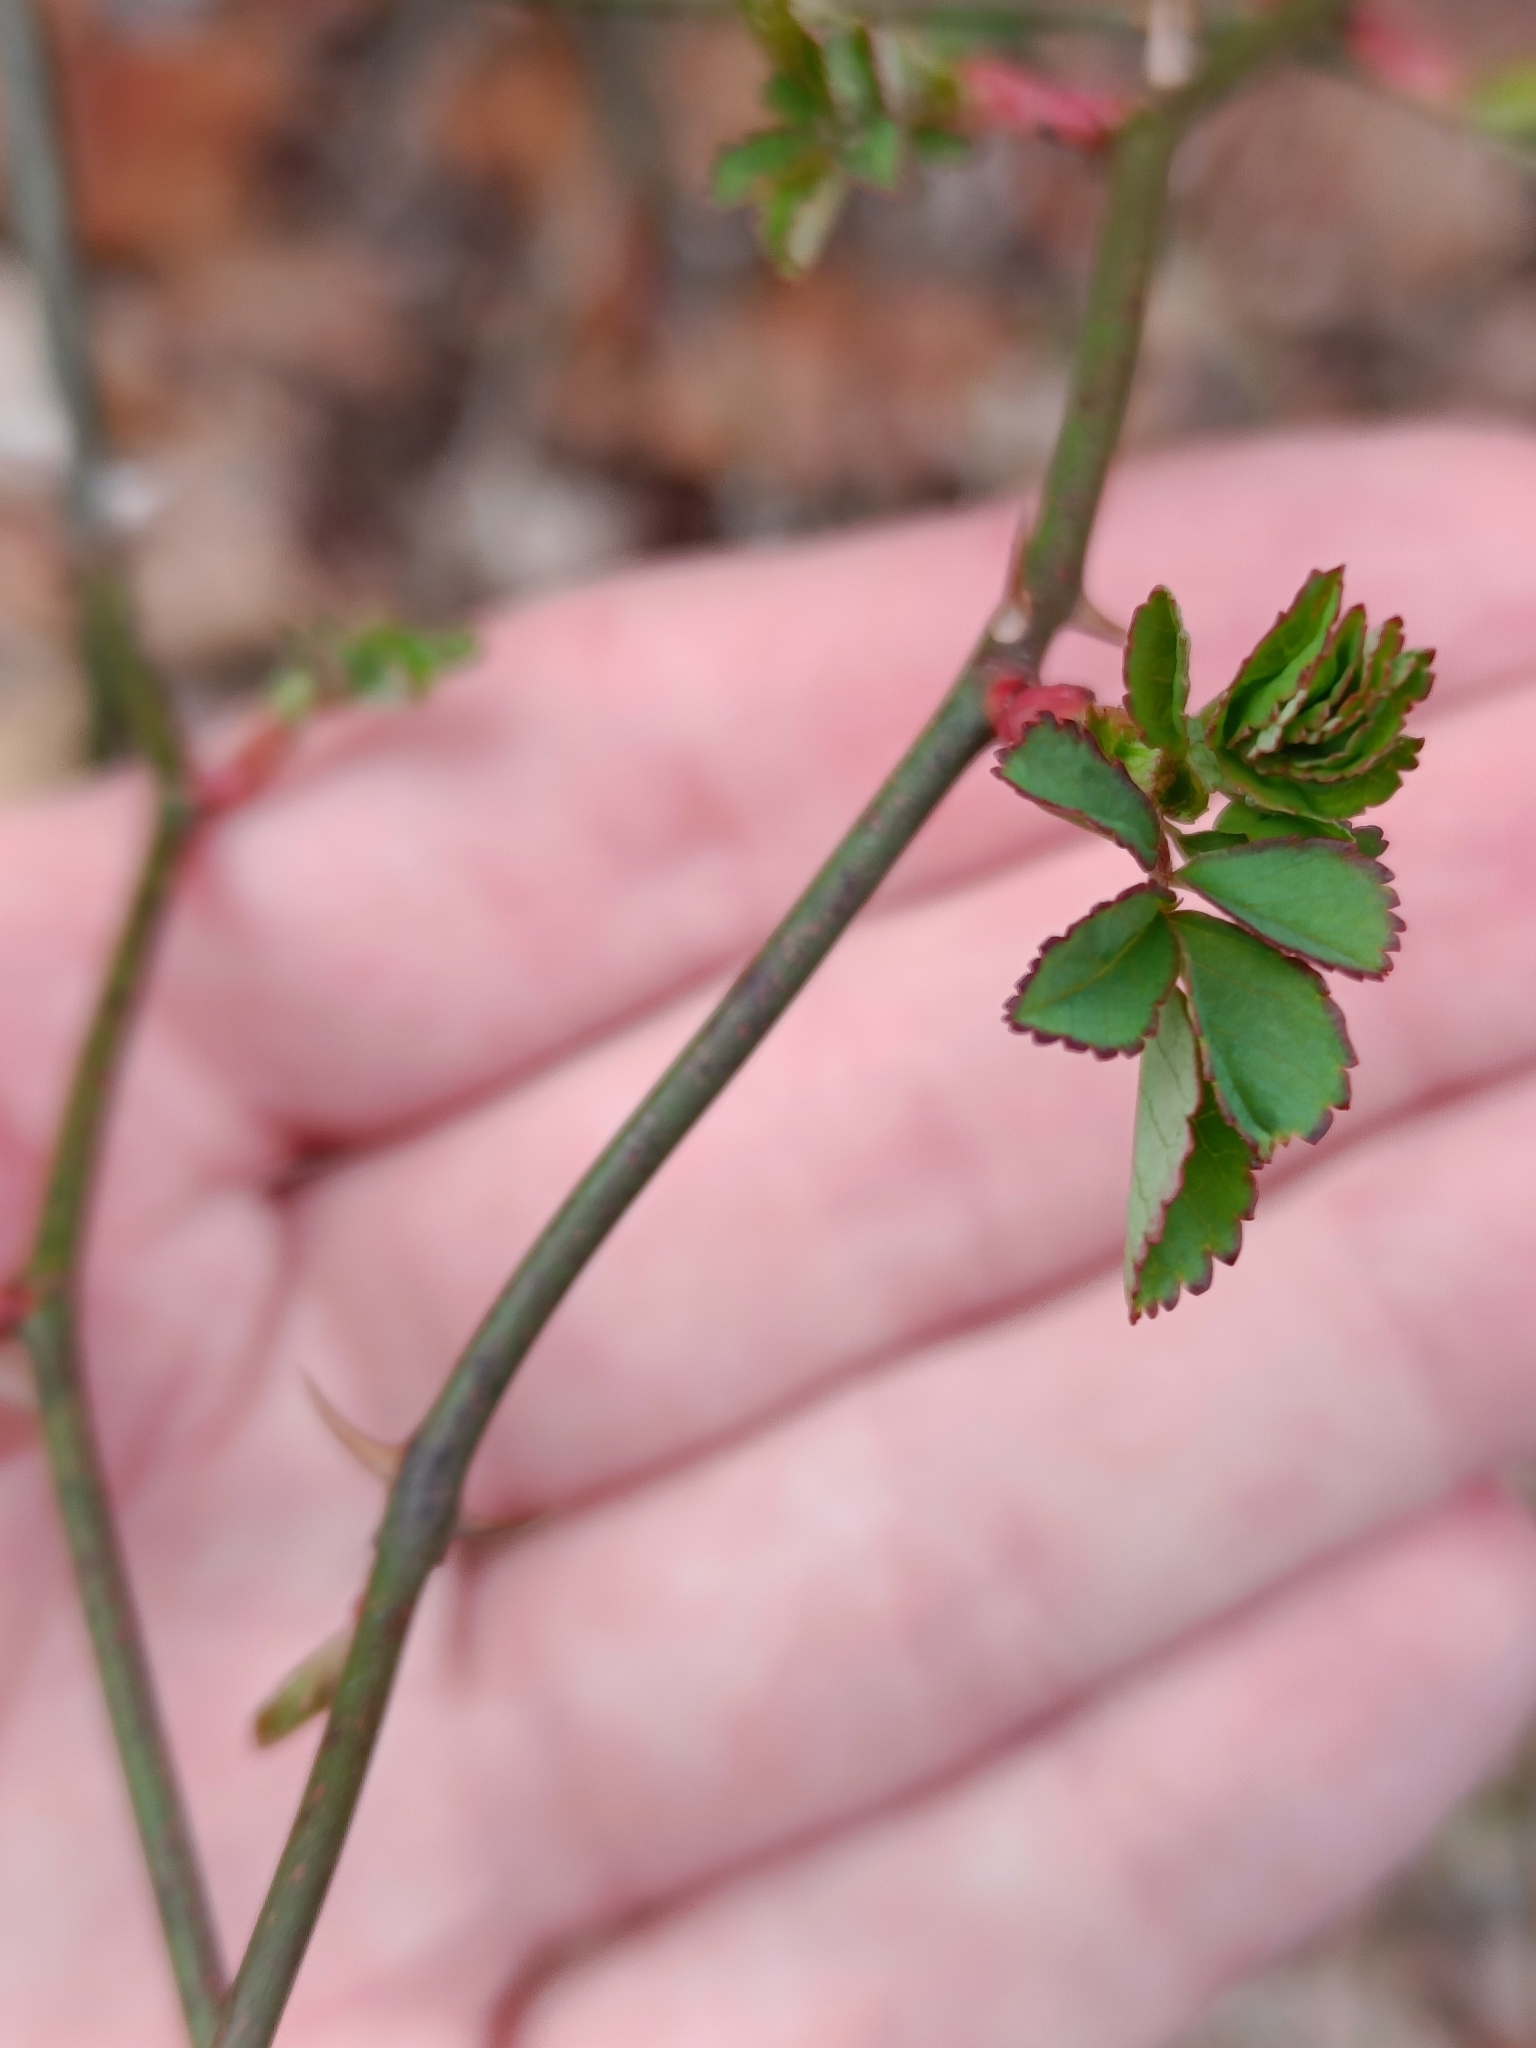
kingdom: Plantae
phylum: Tracheophyta
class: Magnoliopsida
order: Rosales
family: Rosaceae
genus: Rosa
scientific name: Rosa multiflora
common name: Multiflora rose
